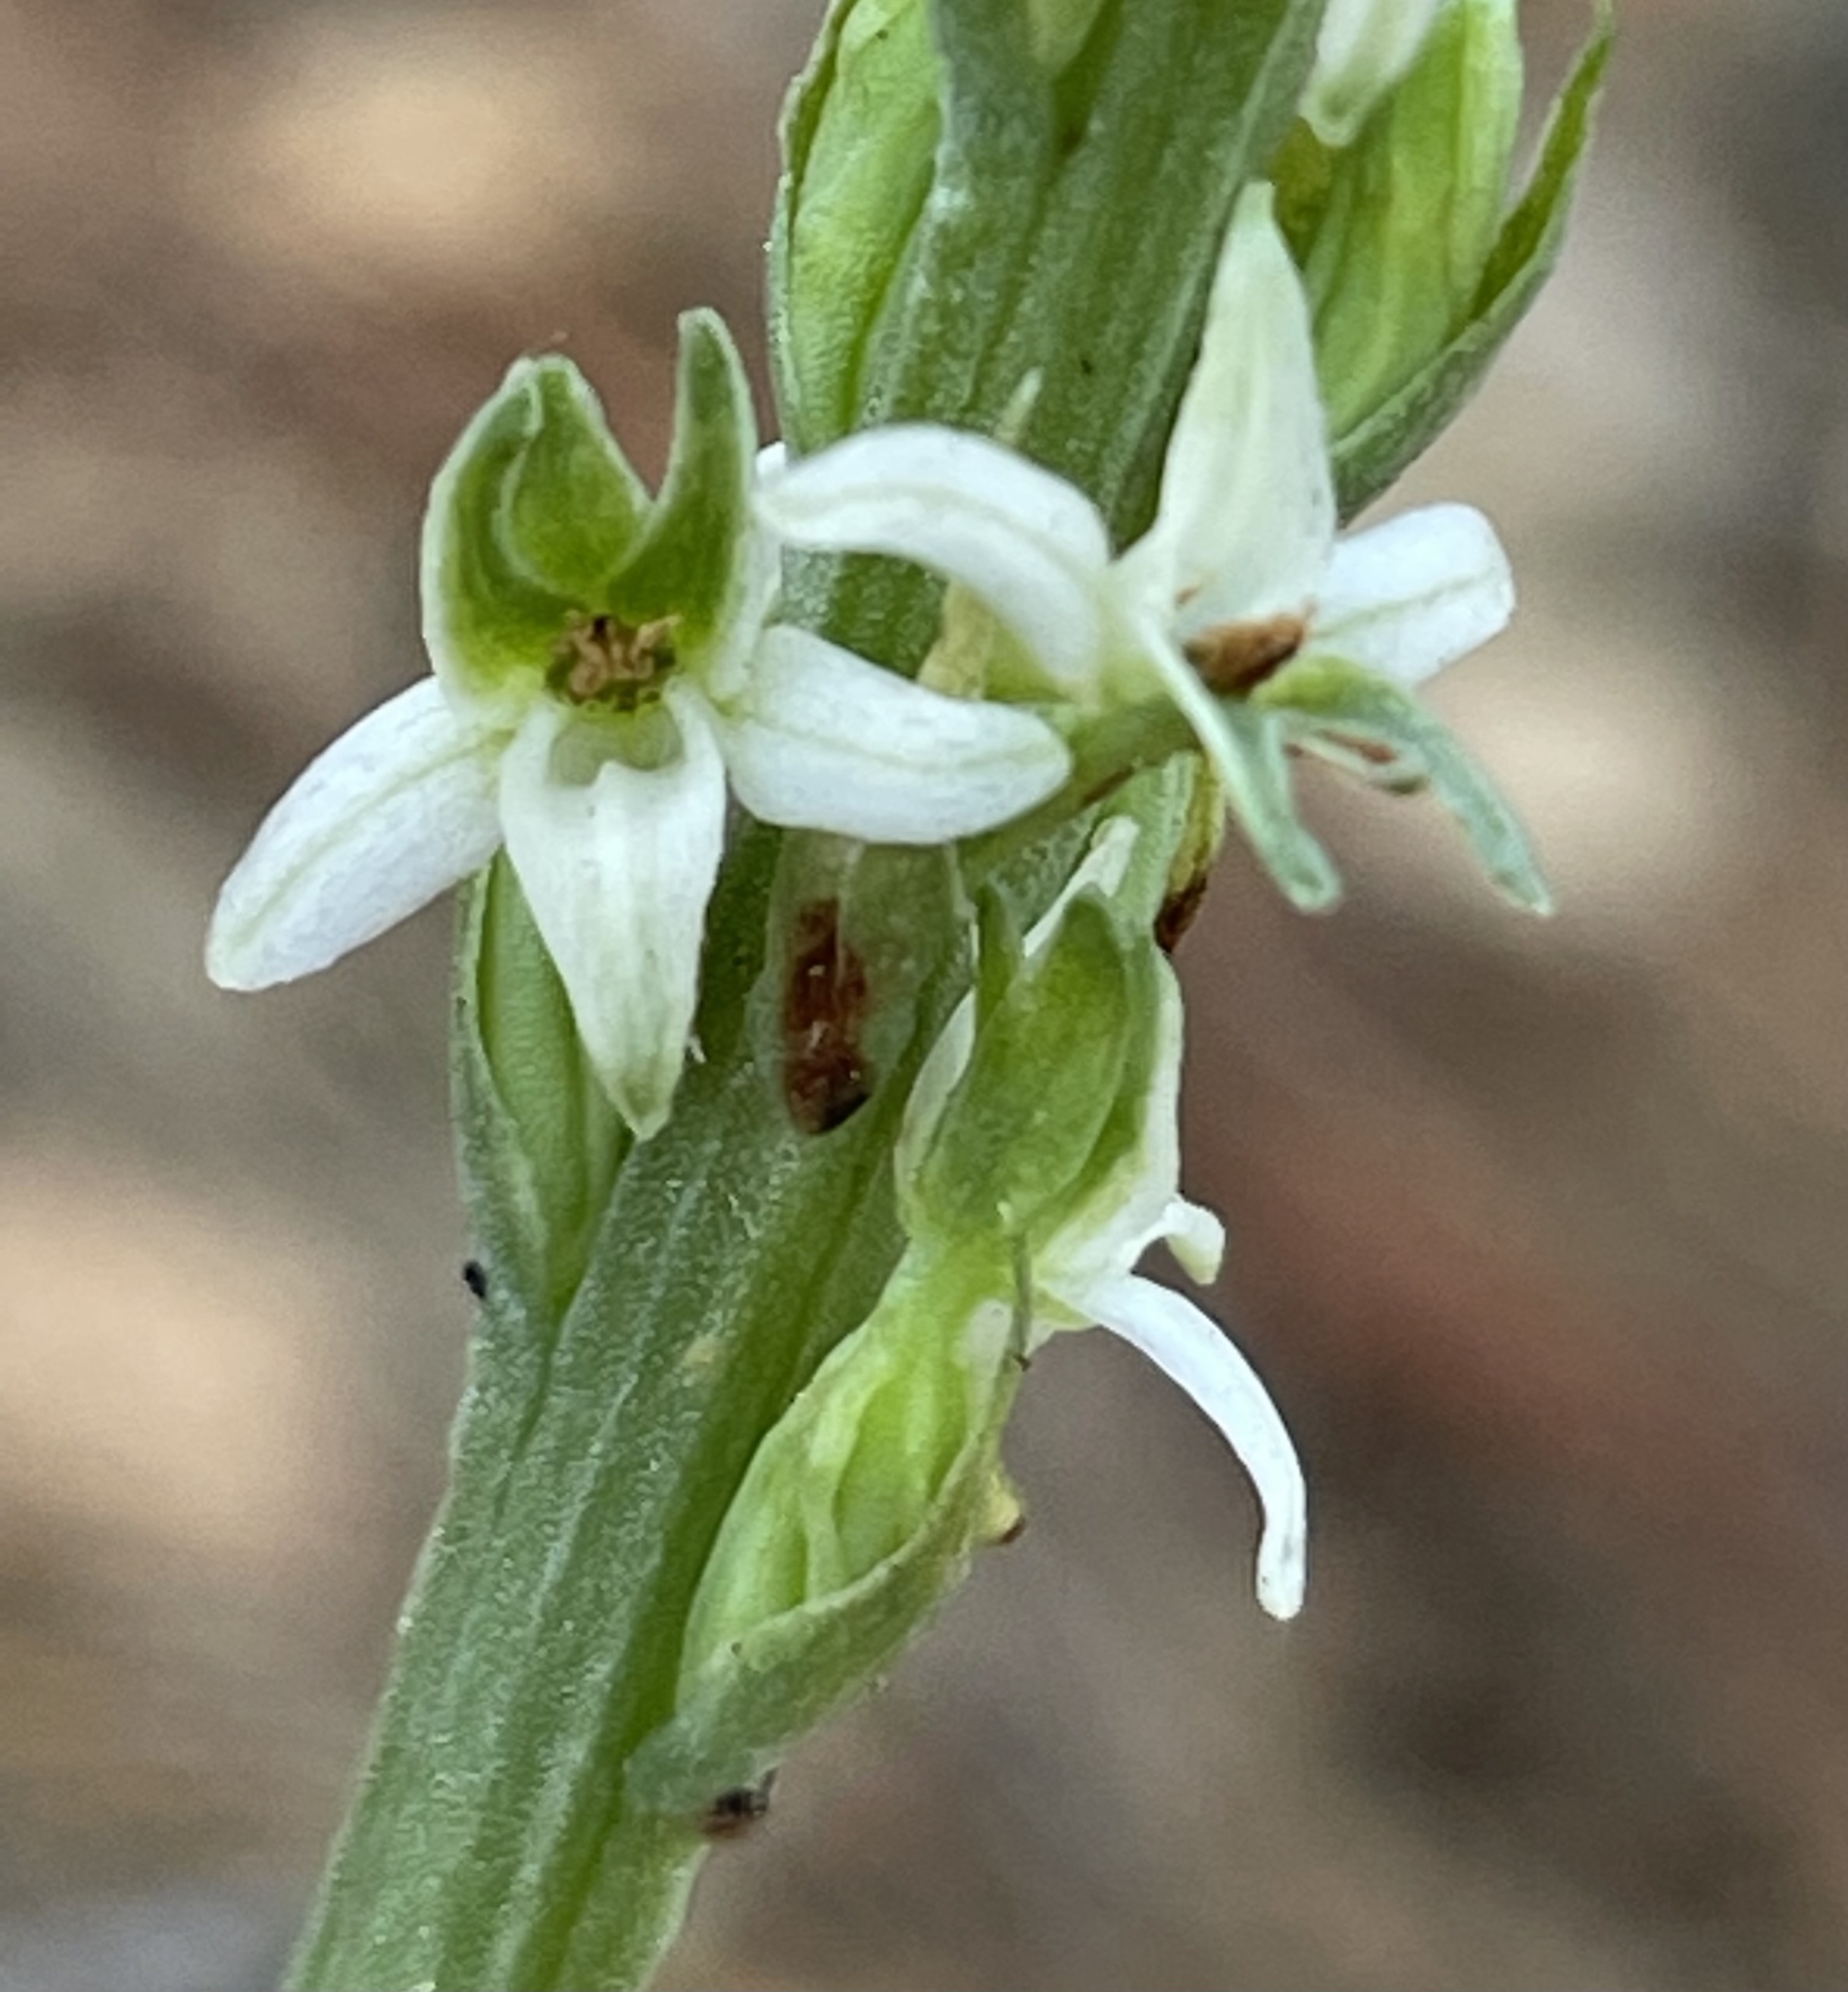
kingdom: Plantae
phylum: Tracheophyta
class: Liliopsida
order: Asparagales
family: Orchidaceae
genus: Platanthera
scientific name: Platanthera yadonii
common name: Yadon’s piperia
